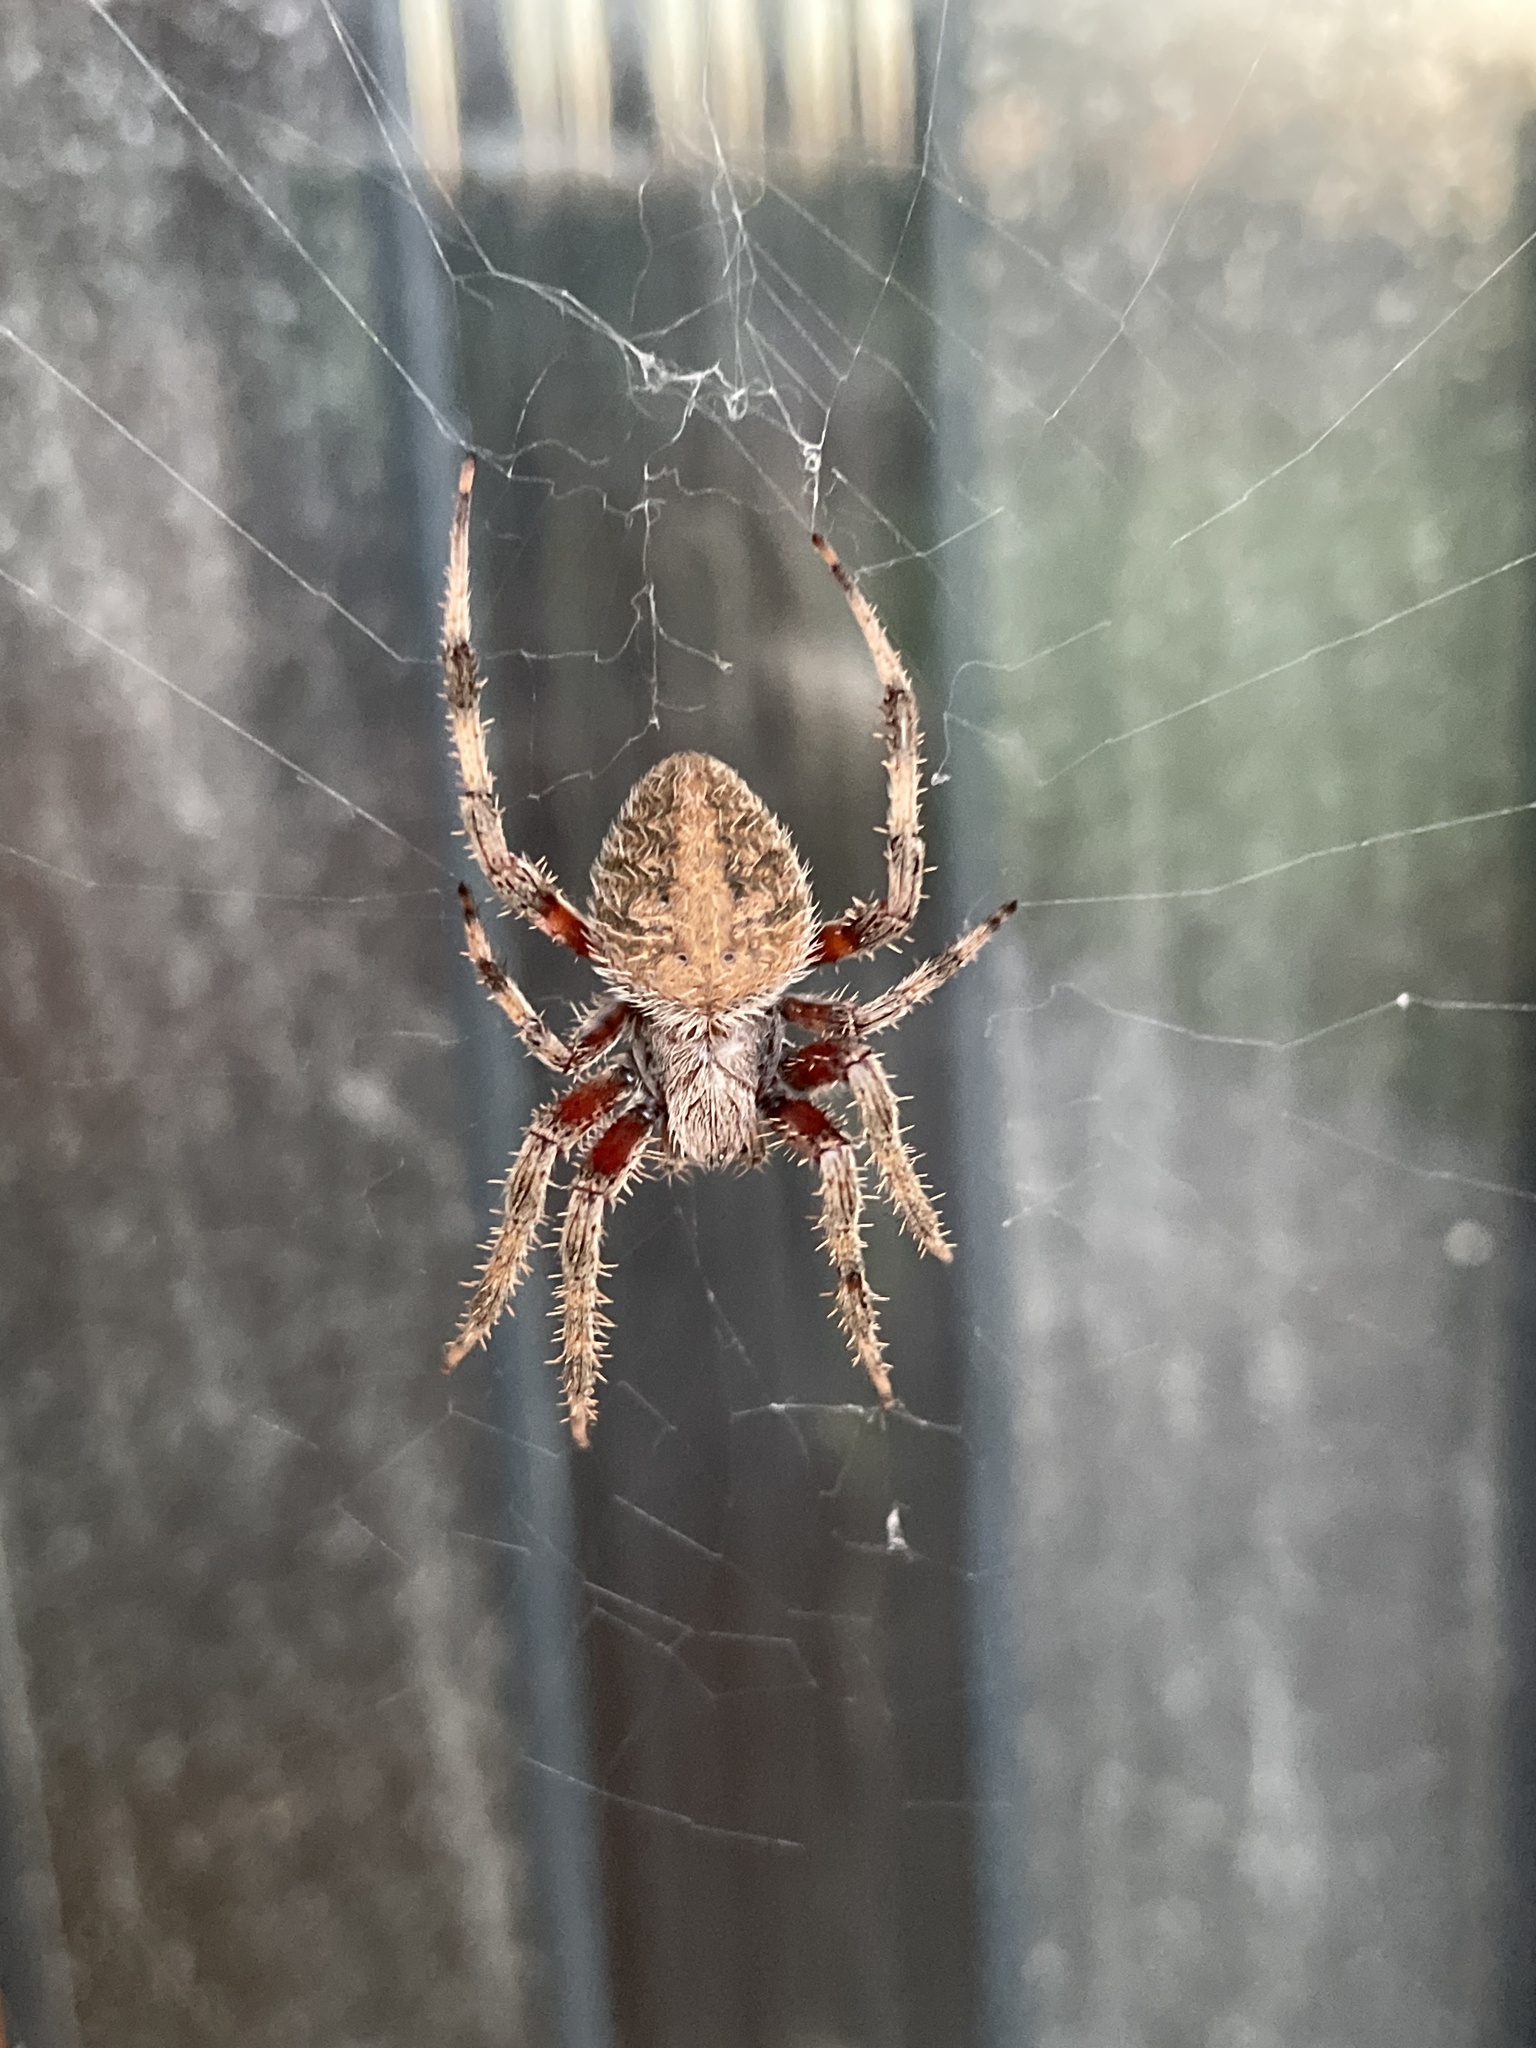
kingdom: Animalia
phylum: Arthropoda
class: Arachnida
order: Araneae
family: Araneidae
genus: Neoscona
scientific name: Neoscona crucifera
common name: Spotted orbweaver
